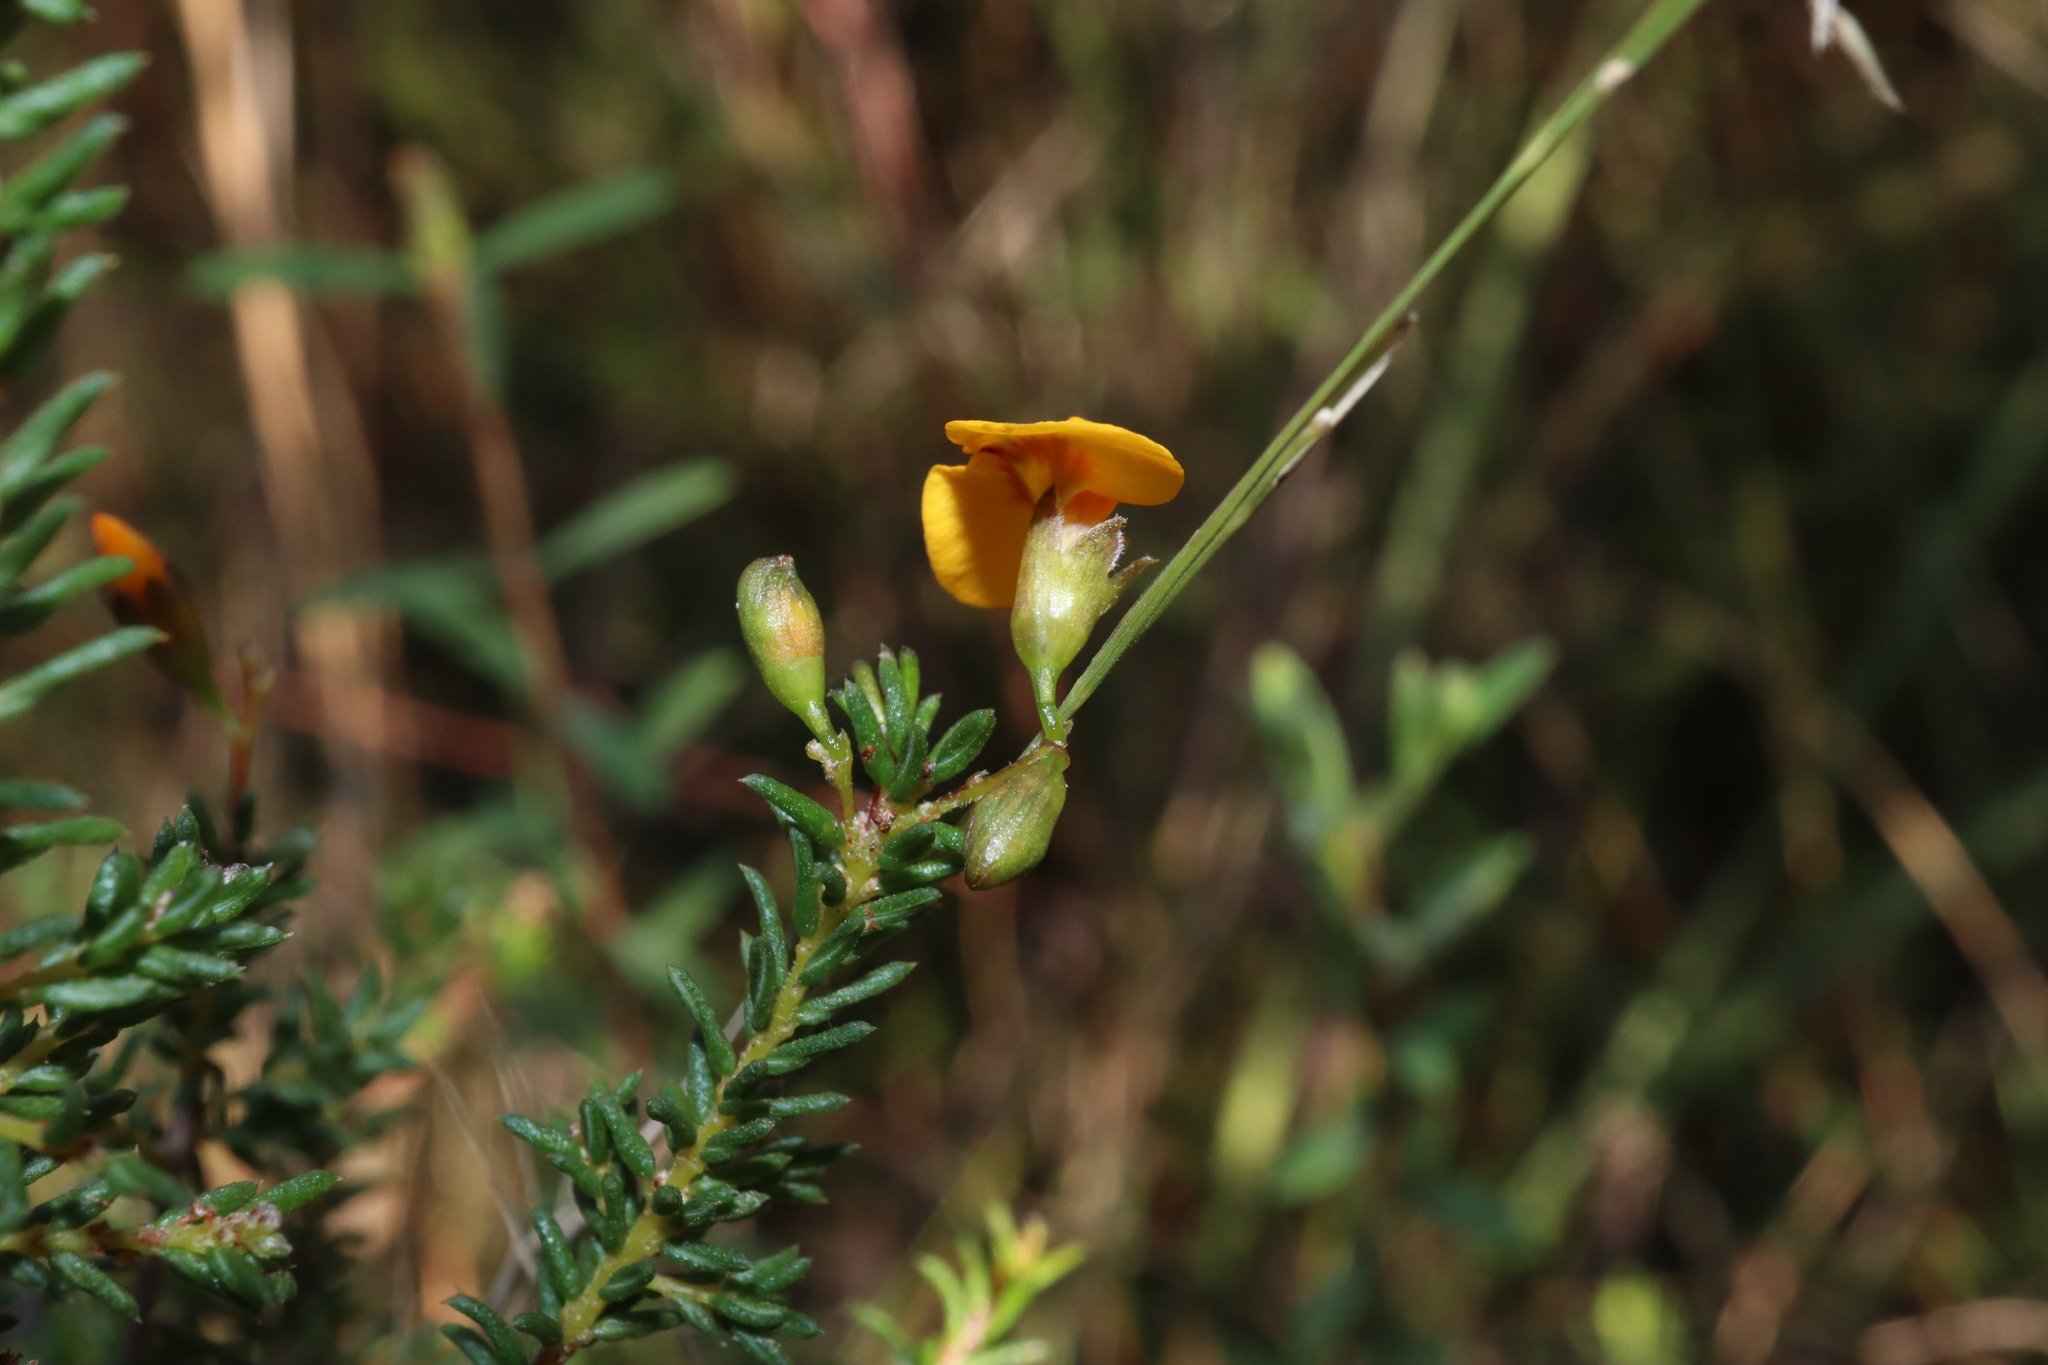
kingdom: Plantae
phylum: Tracheophyta
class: Magnoliopsida
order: Fabales
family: Fabaceae
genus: Dillwynia
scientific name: Dillwynia parvifolia
